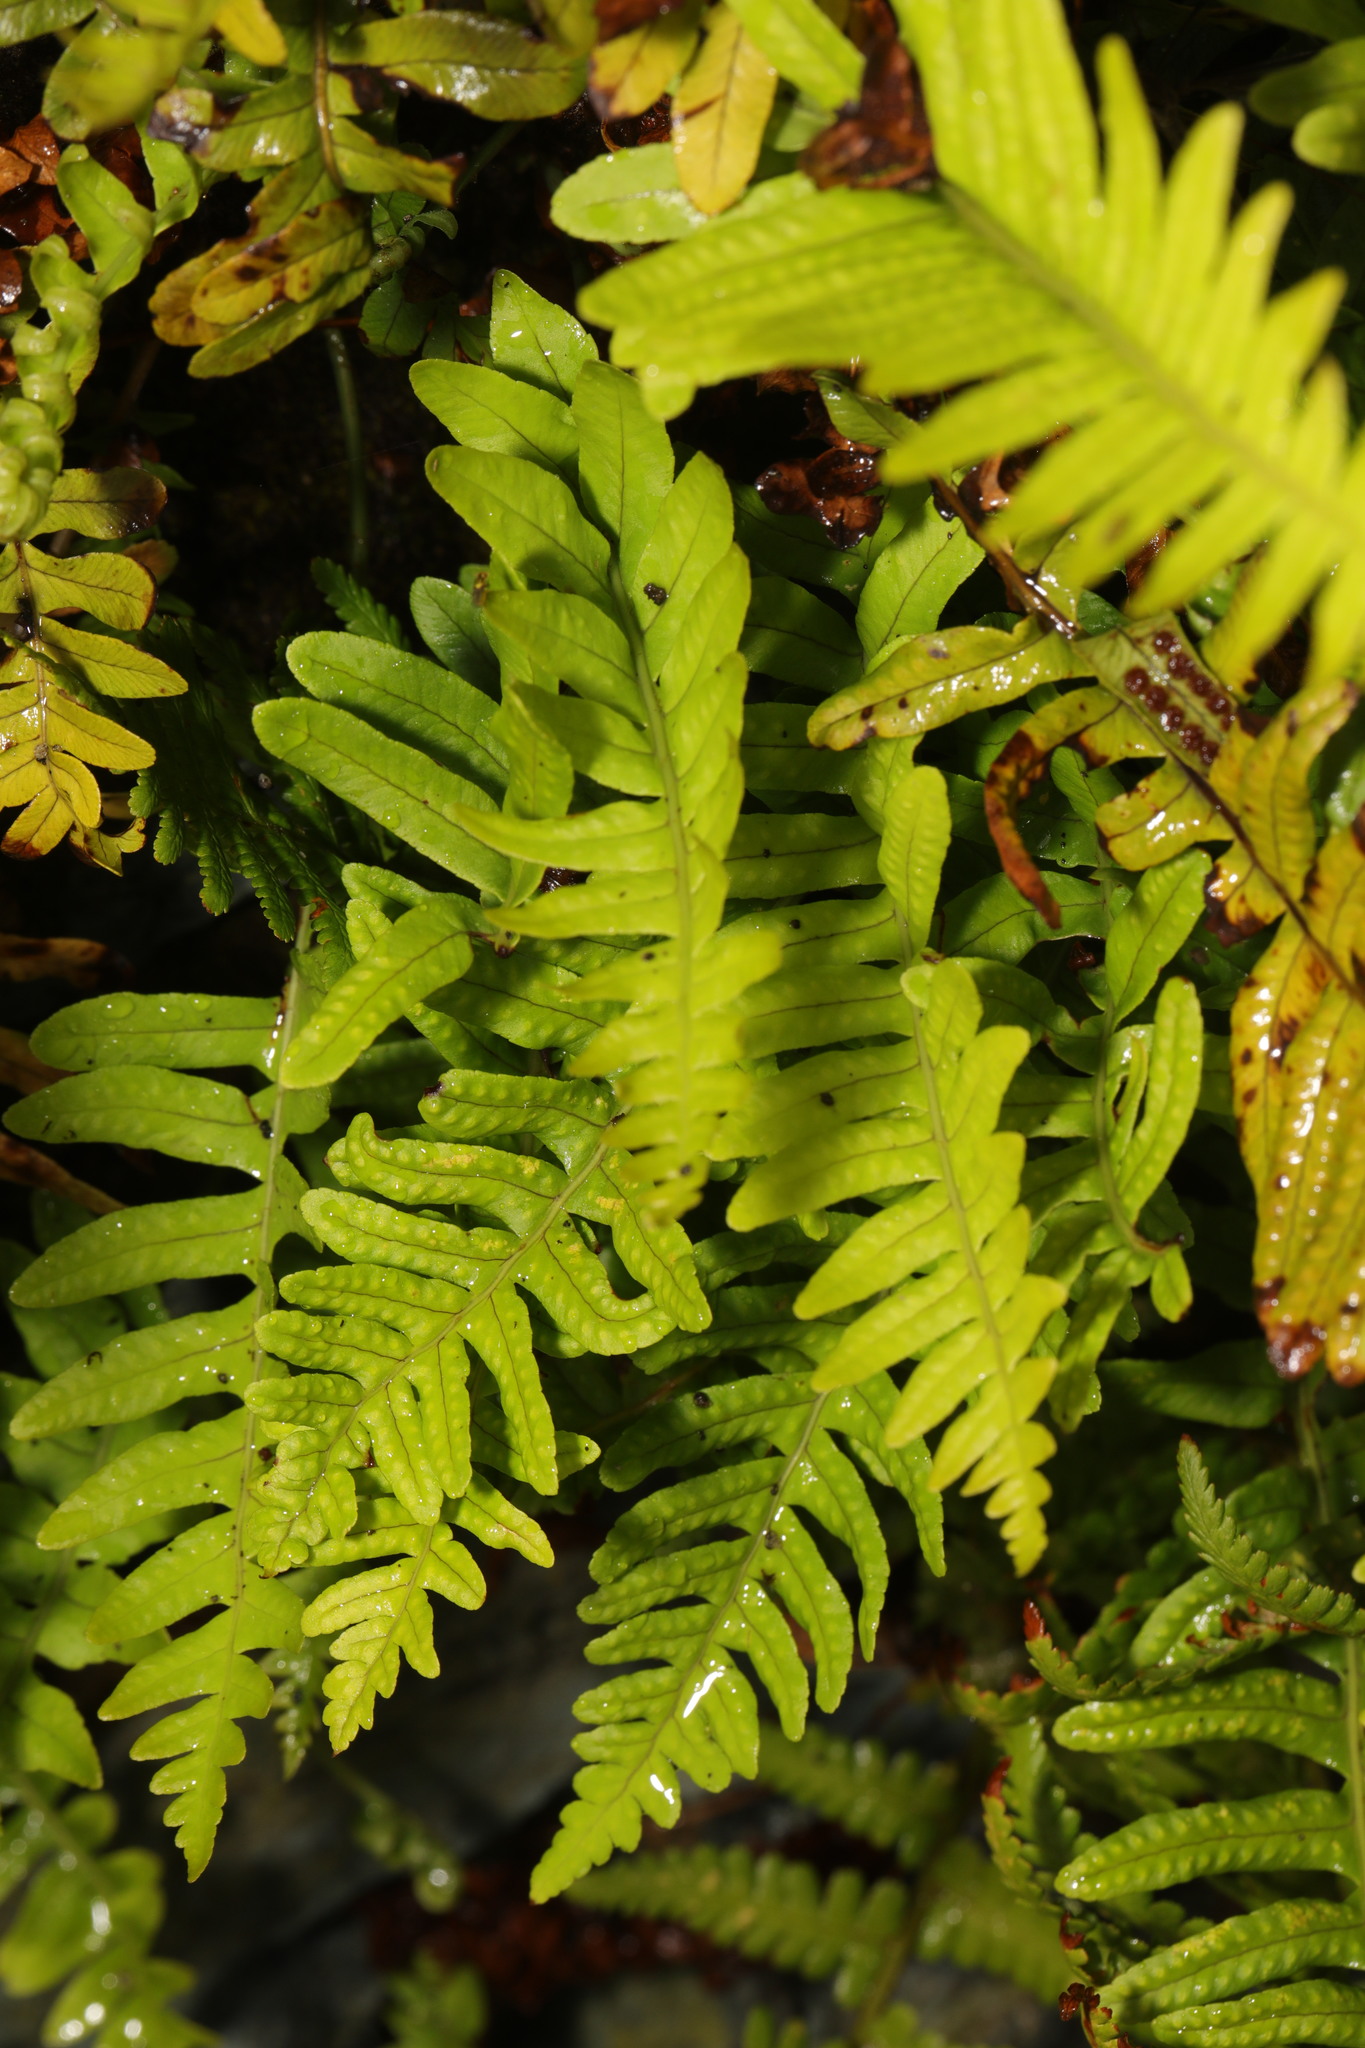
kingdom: Plantae
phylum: Tracheophyta
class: Polypodiopsida
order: Polypodiales
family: Polypodiaceae
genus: Polypodium
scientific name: Polypodium vulgare
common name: Common polypody
